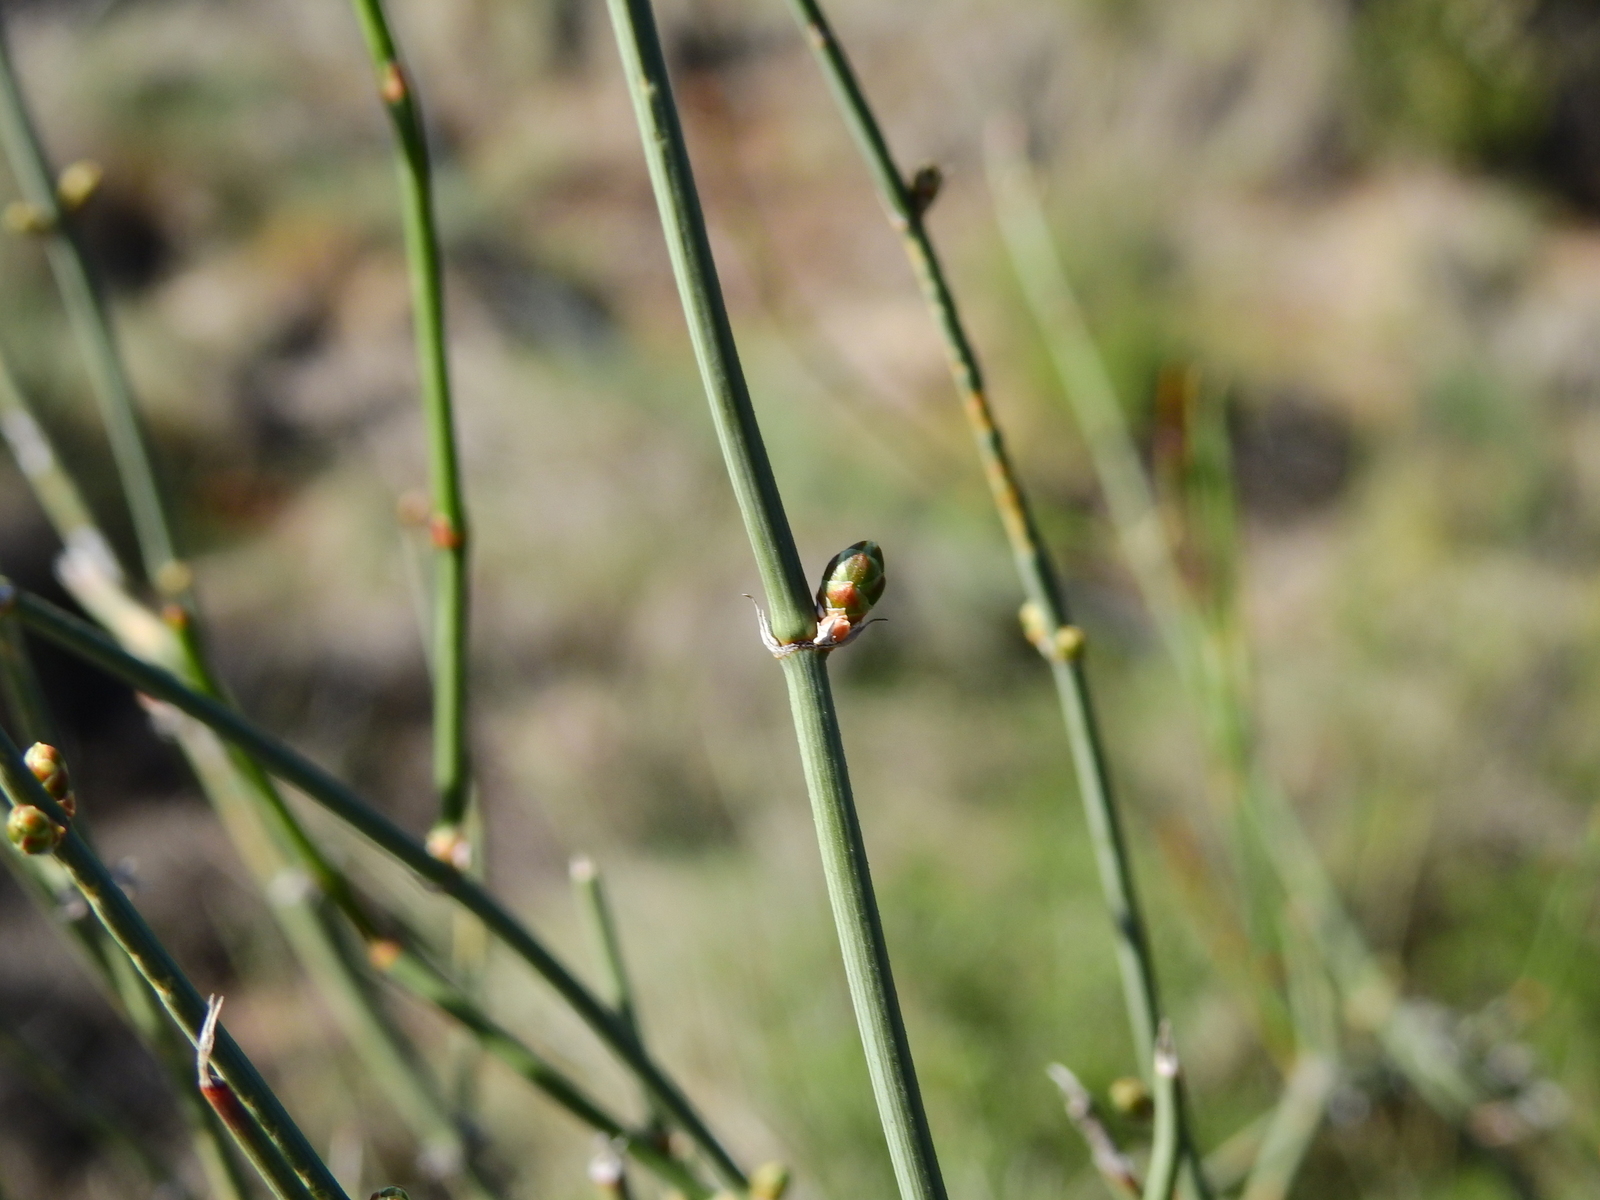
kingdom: Plantae
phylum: Tracheophyta
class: Gnetopsida
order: Ephedrales
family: Ephedraceae
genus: Ephedra
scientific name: Ephedra triandra
